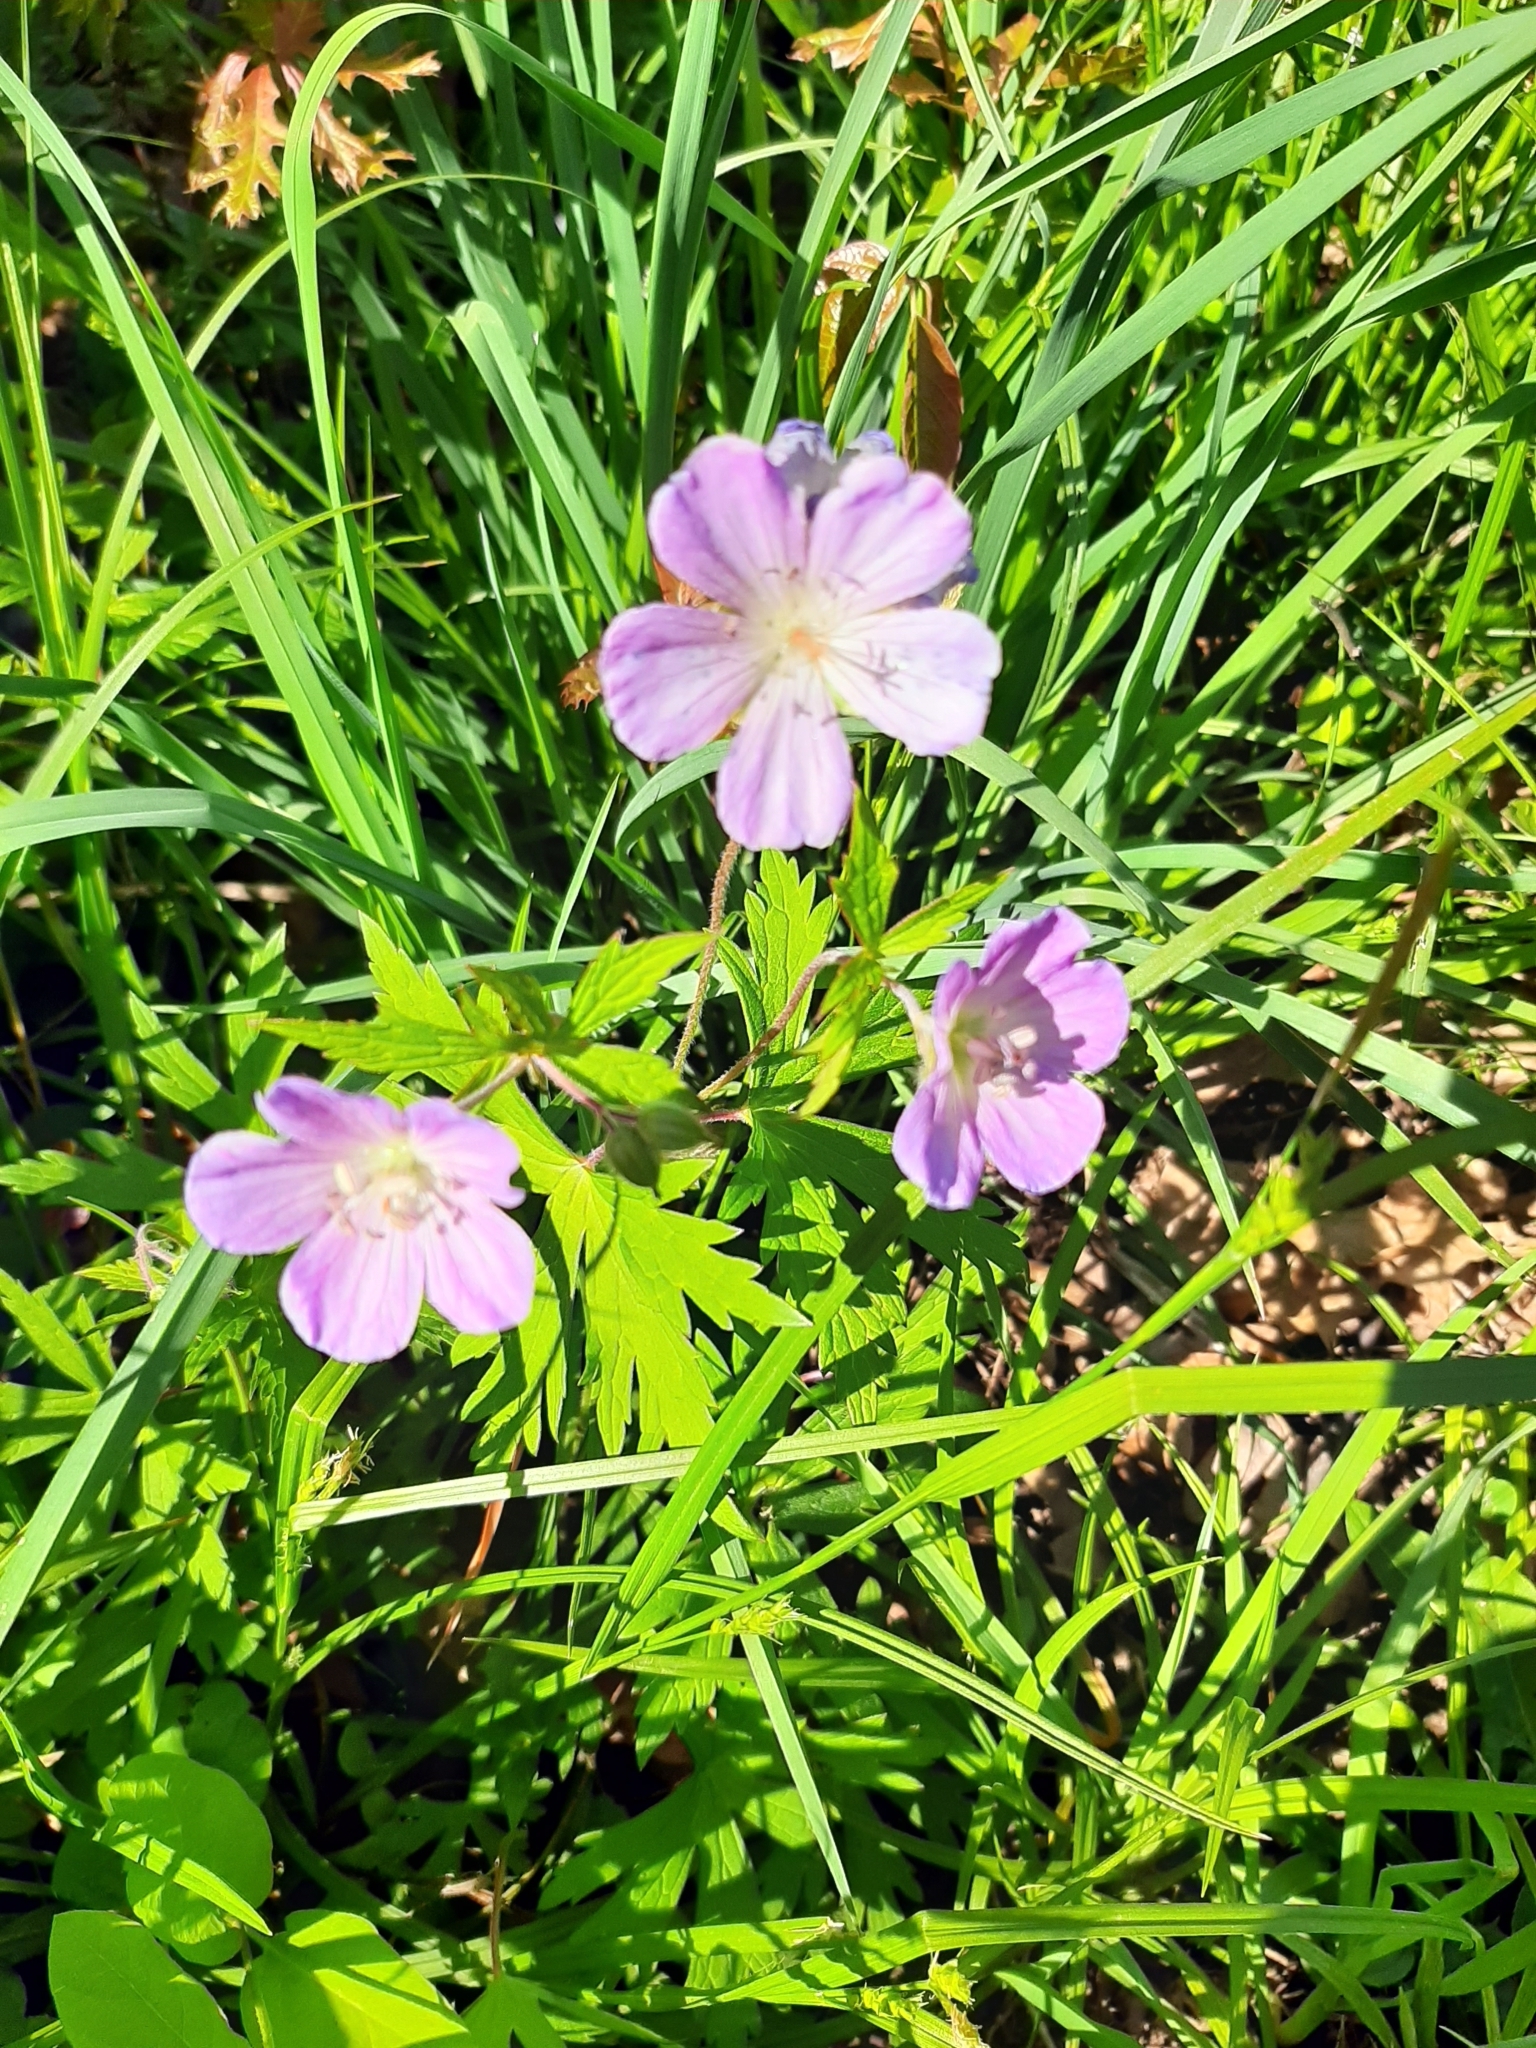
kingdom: Plantae
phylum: Tracheophyta
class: Magnoliopsida
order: Geraniales
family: Geraniaceae
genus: Geranium
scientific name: Geranium maculatum
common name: Spotted geranium
